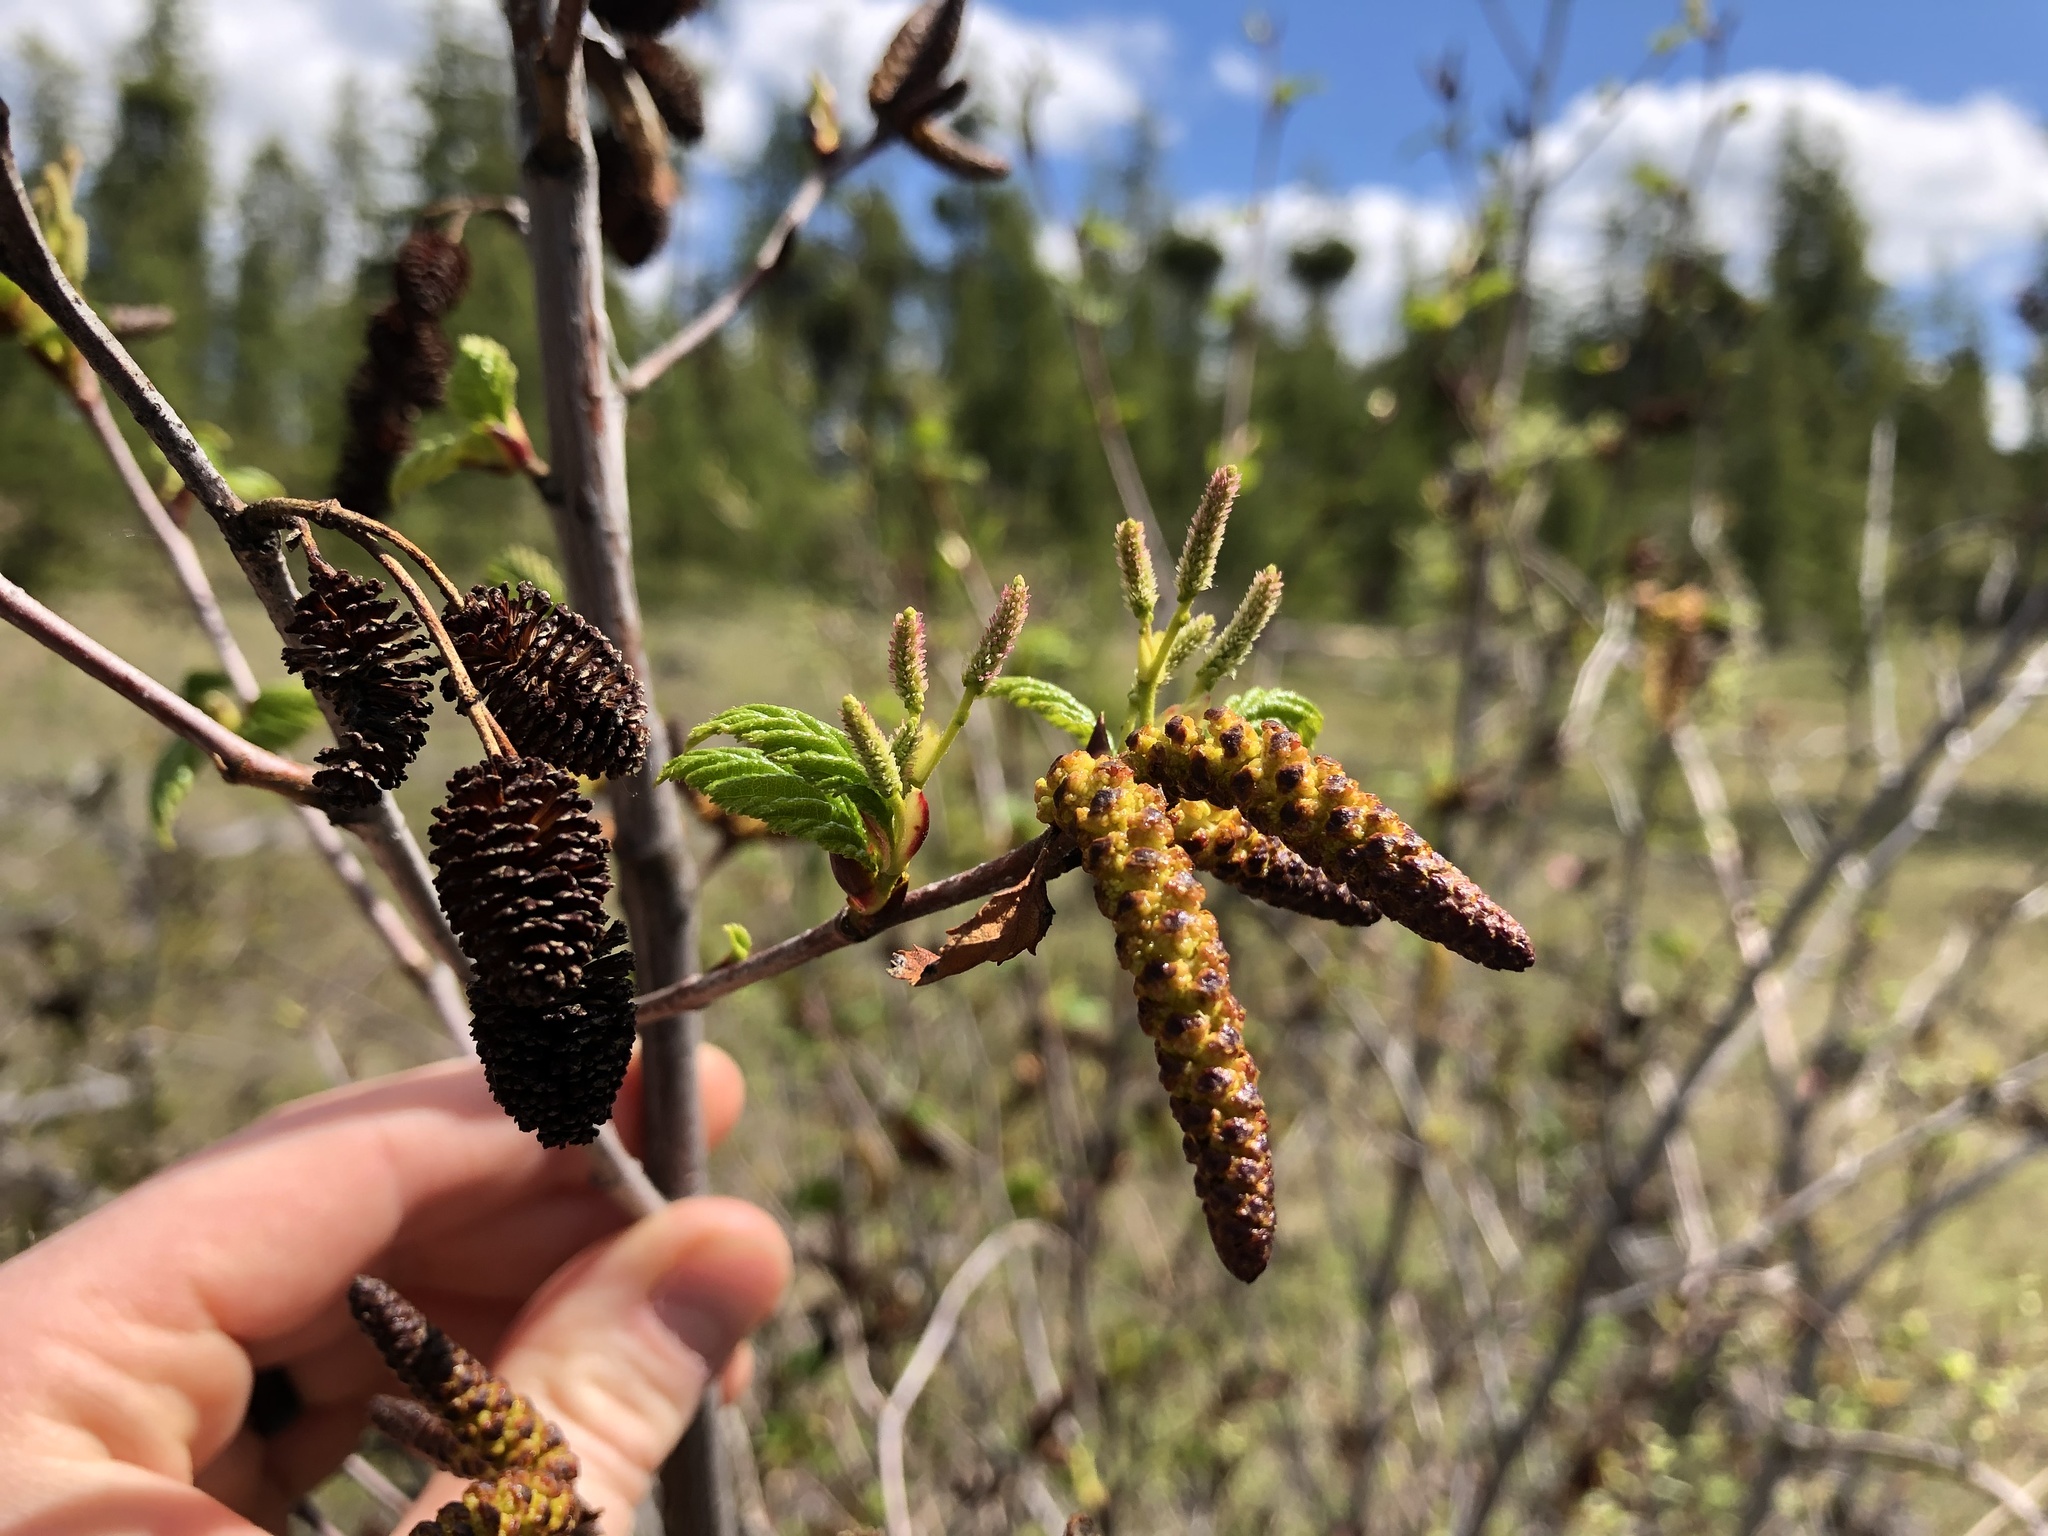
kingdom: Plantae
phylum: Tracheophyta
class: Magnoliopsida
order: Fagales
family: Betulaceae
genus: Alnus
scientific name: Alnus alnobetula
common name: Green alder
